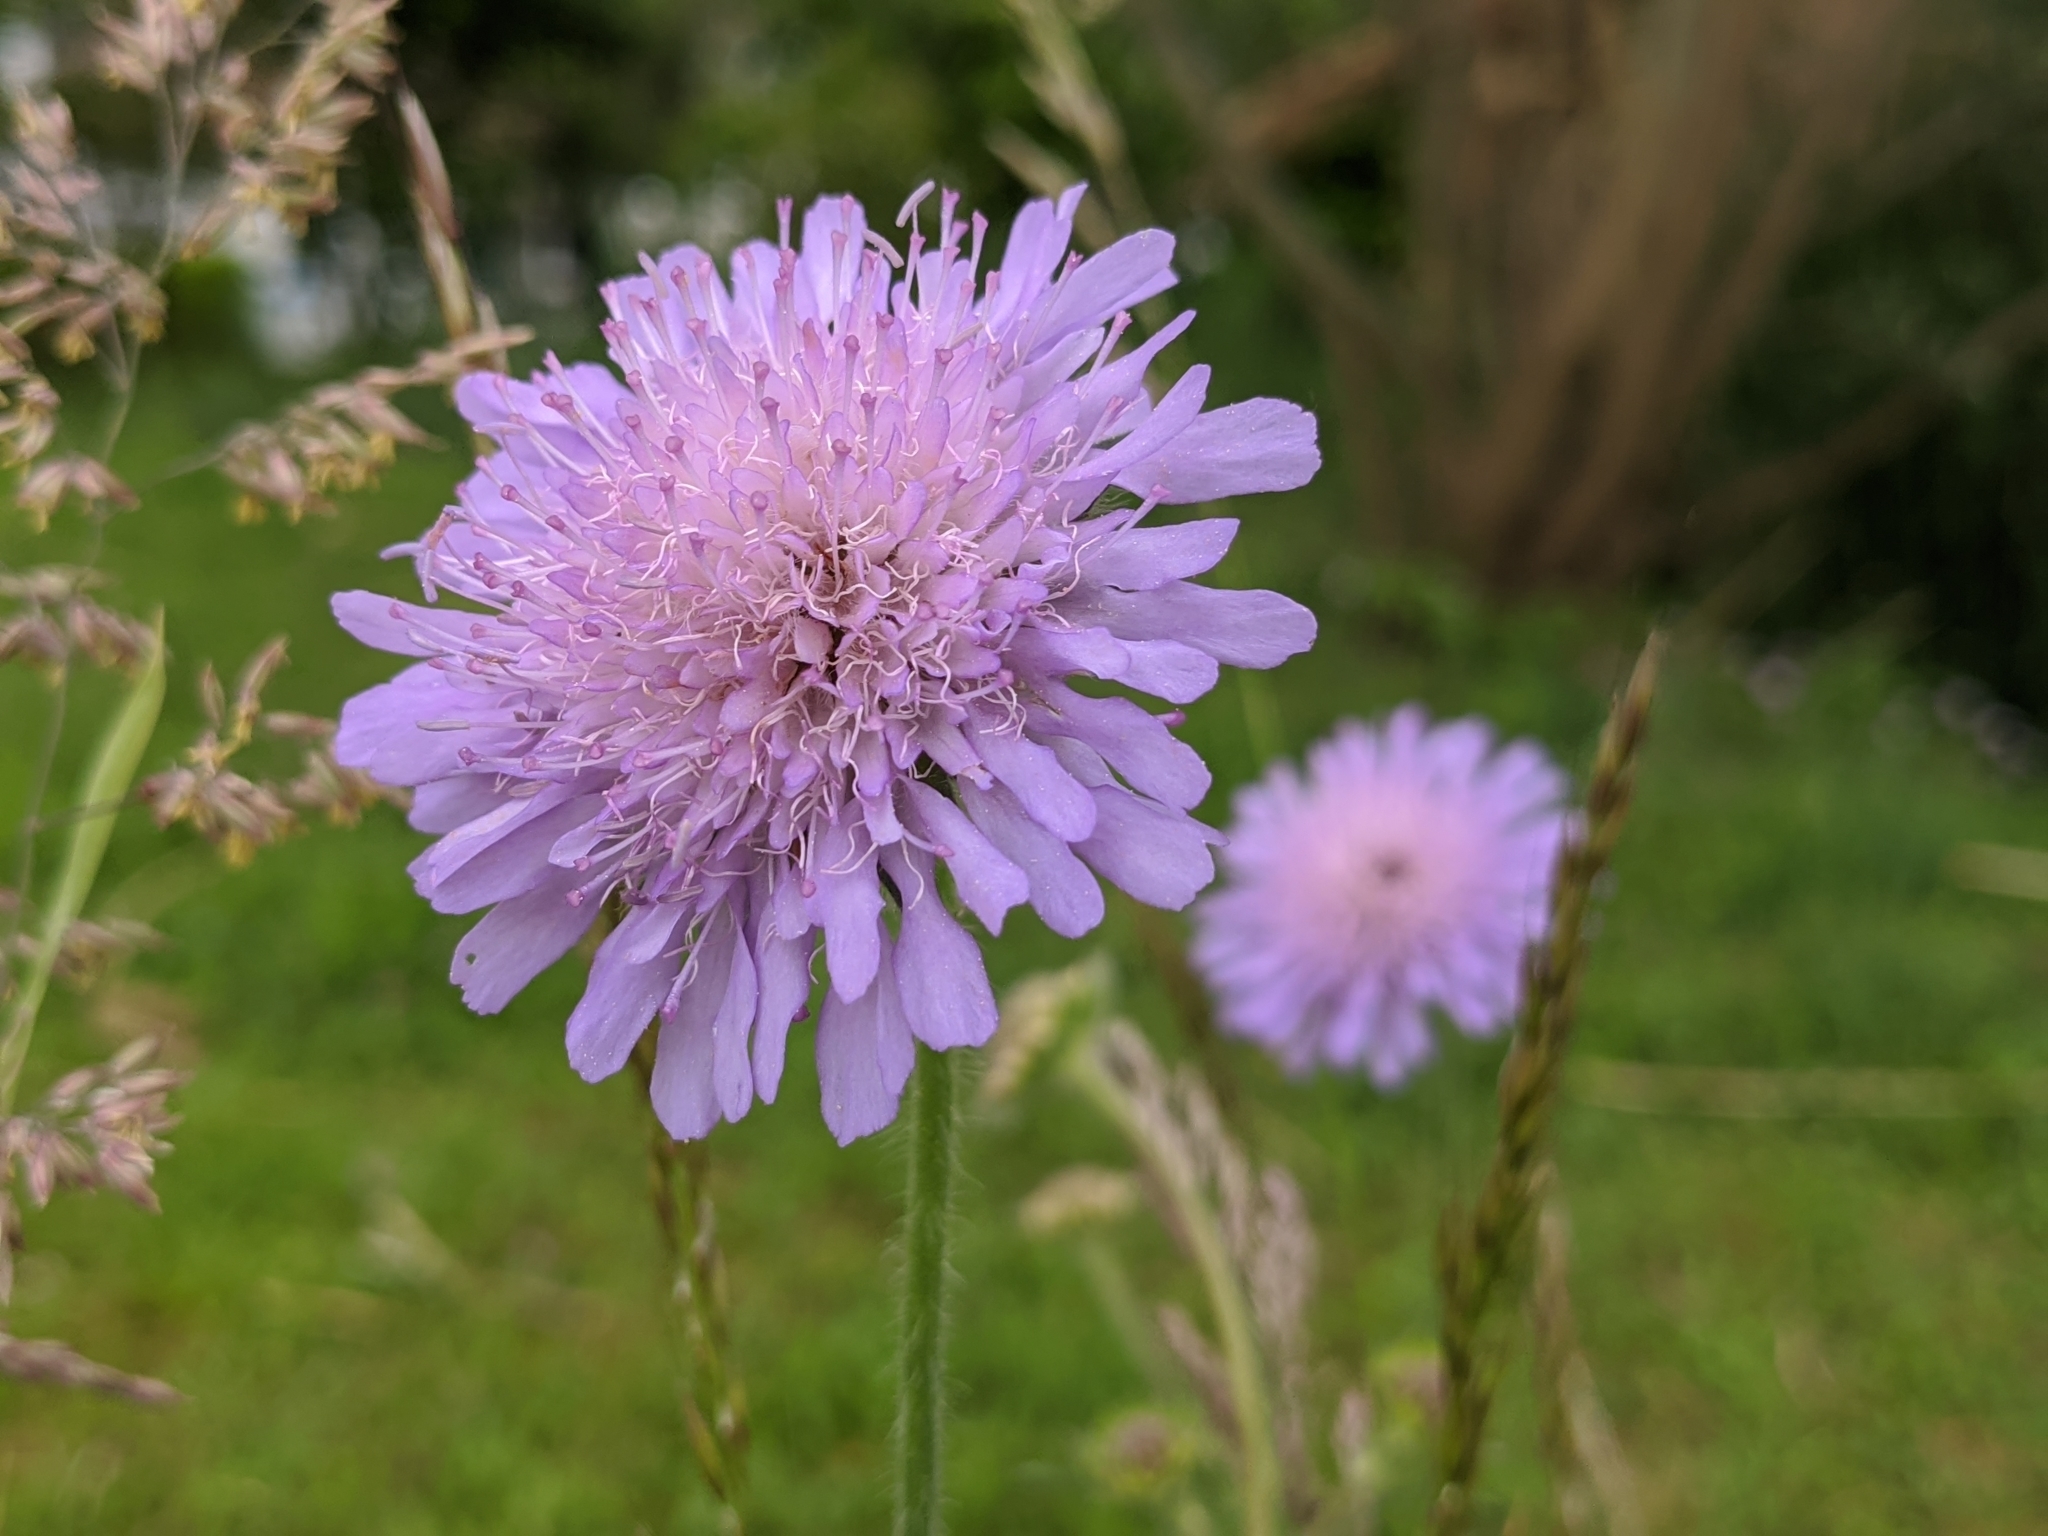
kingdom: Plantae
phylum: Tracheophyta
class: Magnoliopsida
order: Dipsacales
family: Caprifoliaceae
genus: Knautia
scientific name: Knautia arvensis
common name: Field scabiosa
